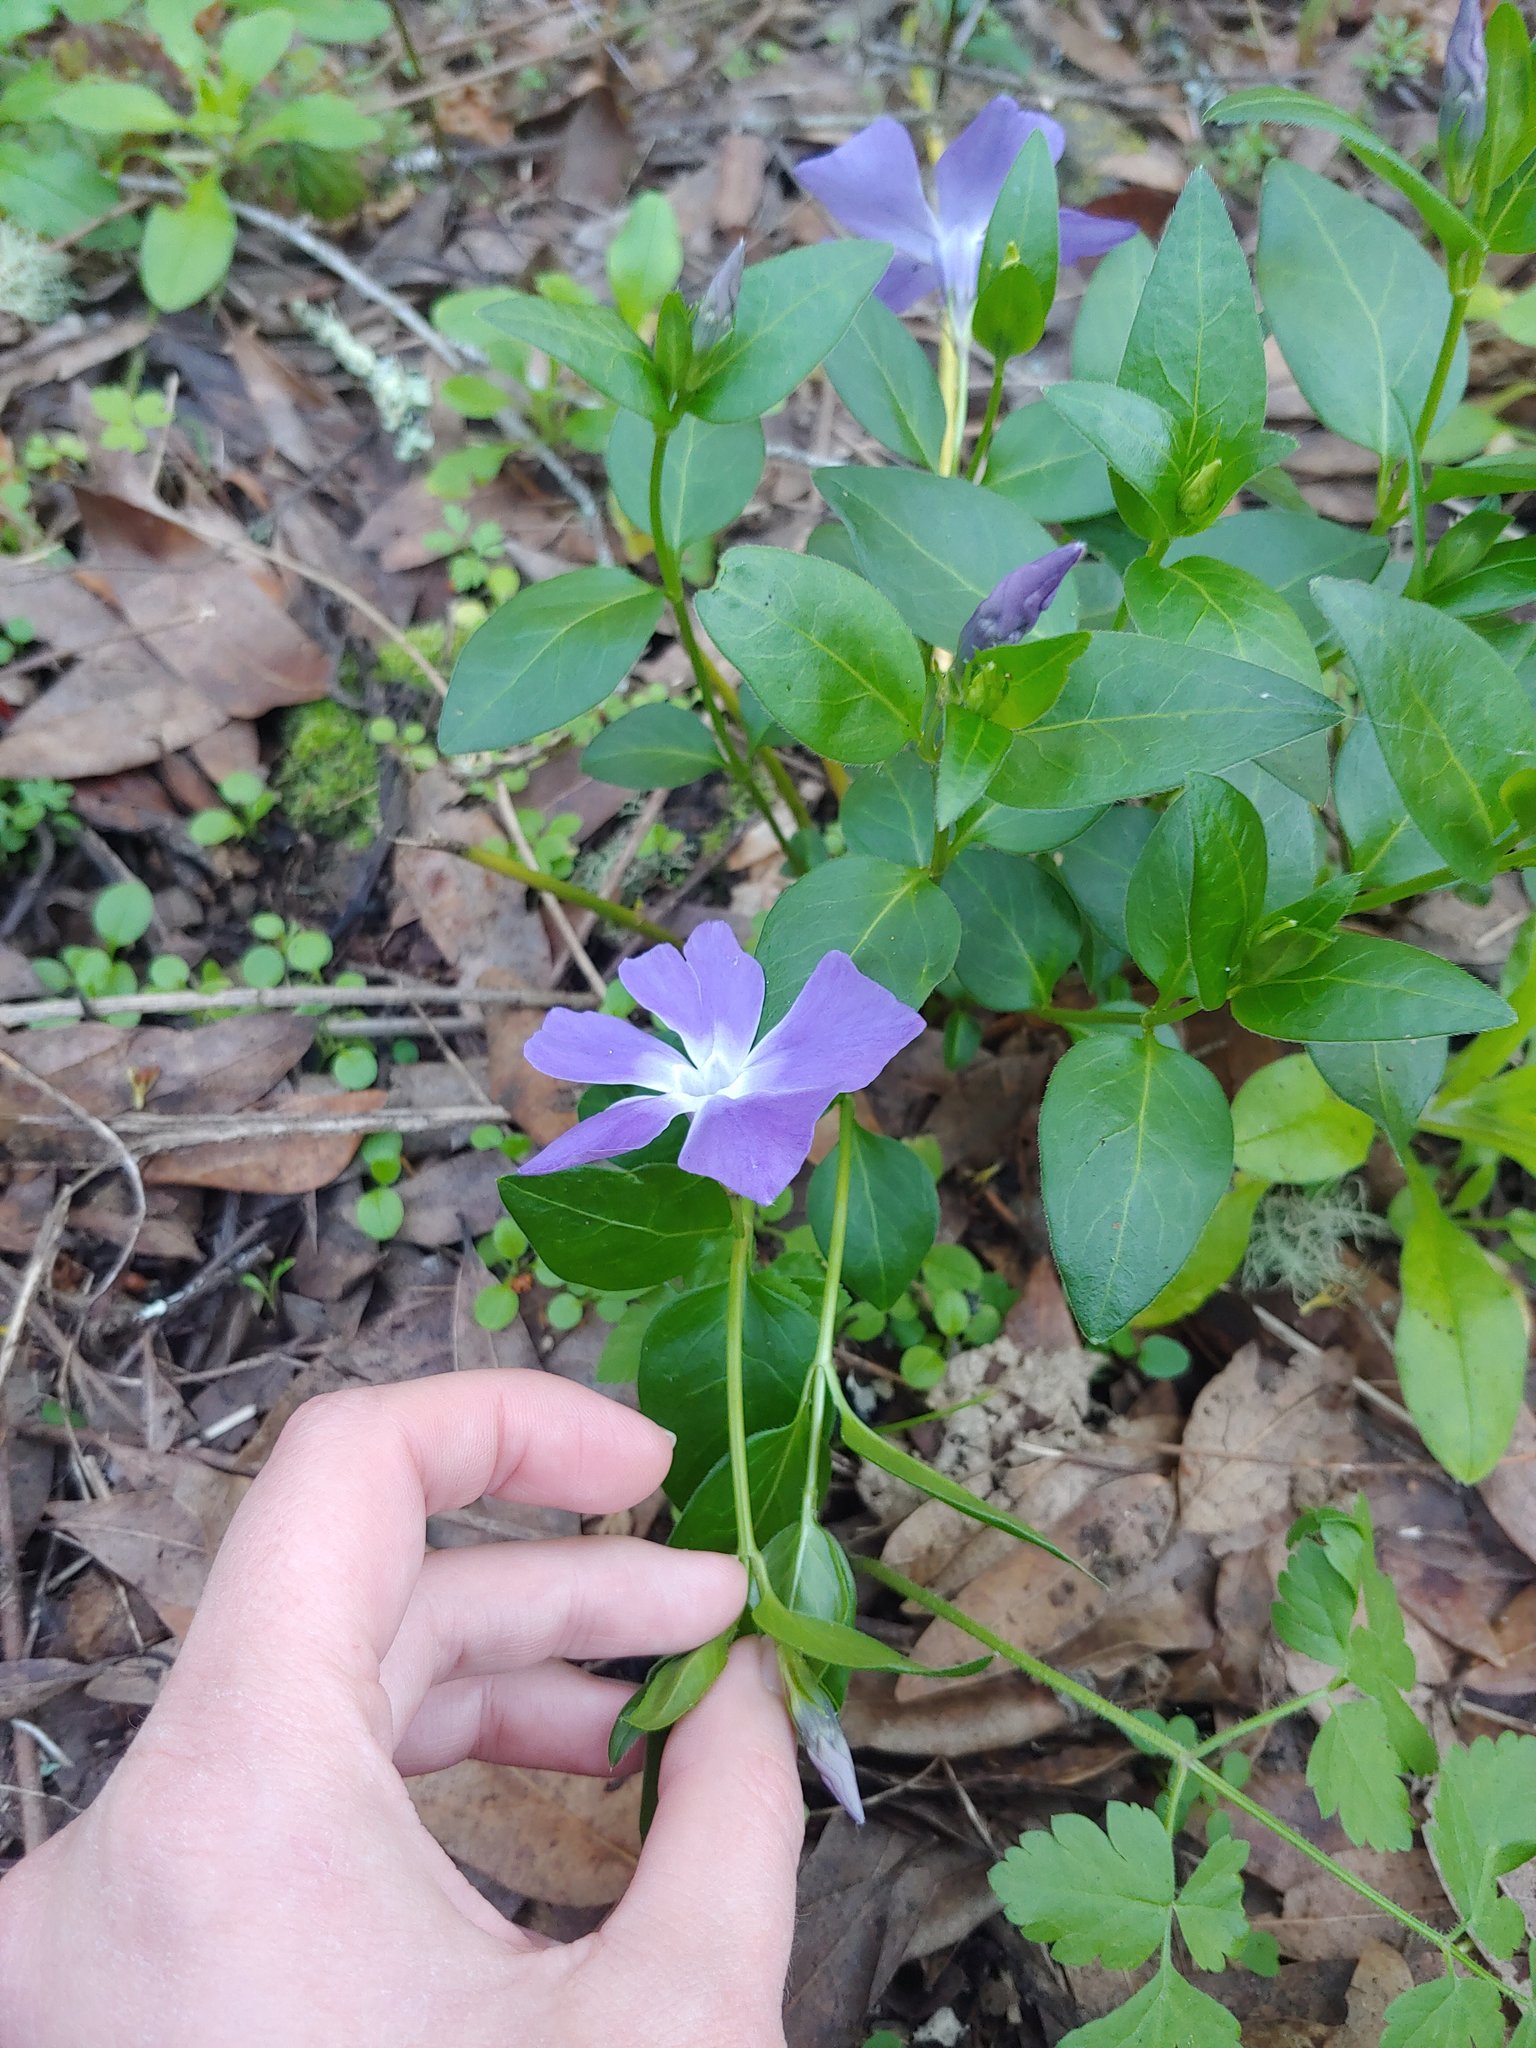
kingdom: Plantae
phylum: Tracheophyta
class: Magnoliopsida
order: Gentianales
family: Apocynaceae
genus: Vinca
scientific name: Vinca major
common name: Greater periwinkle
